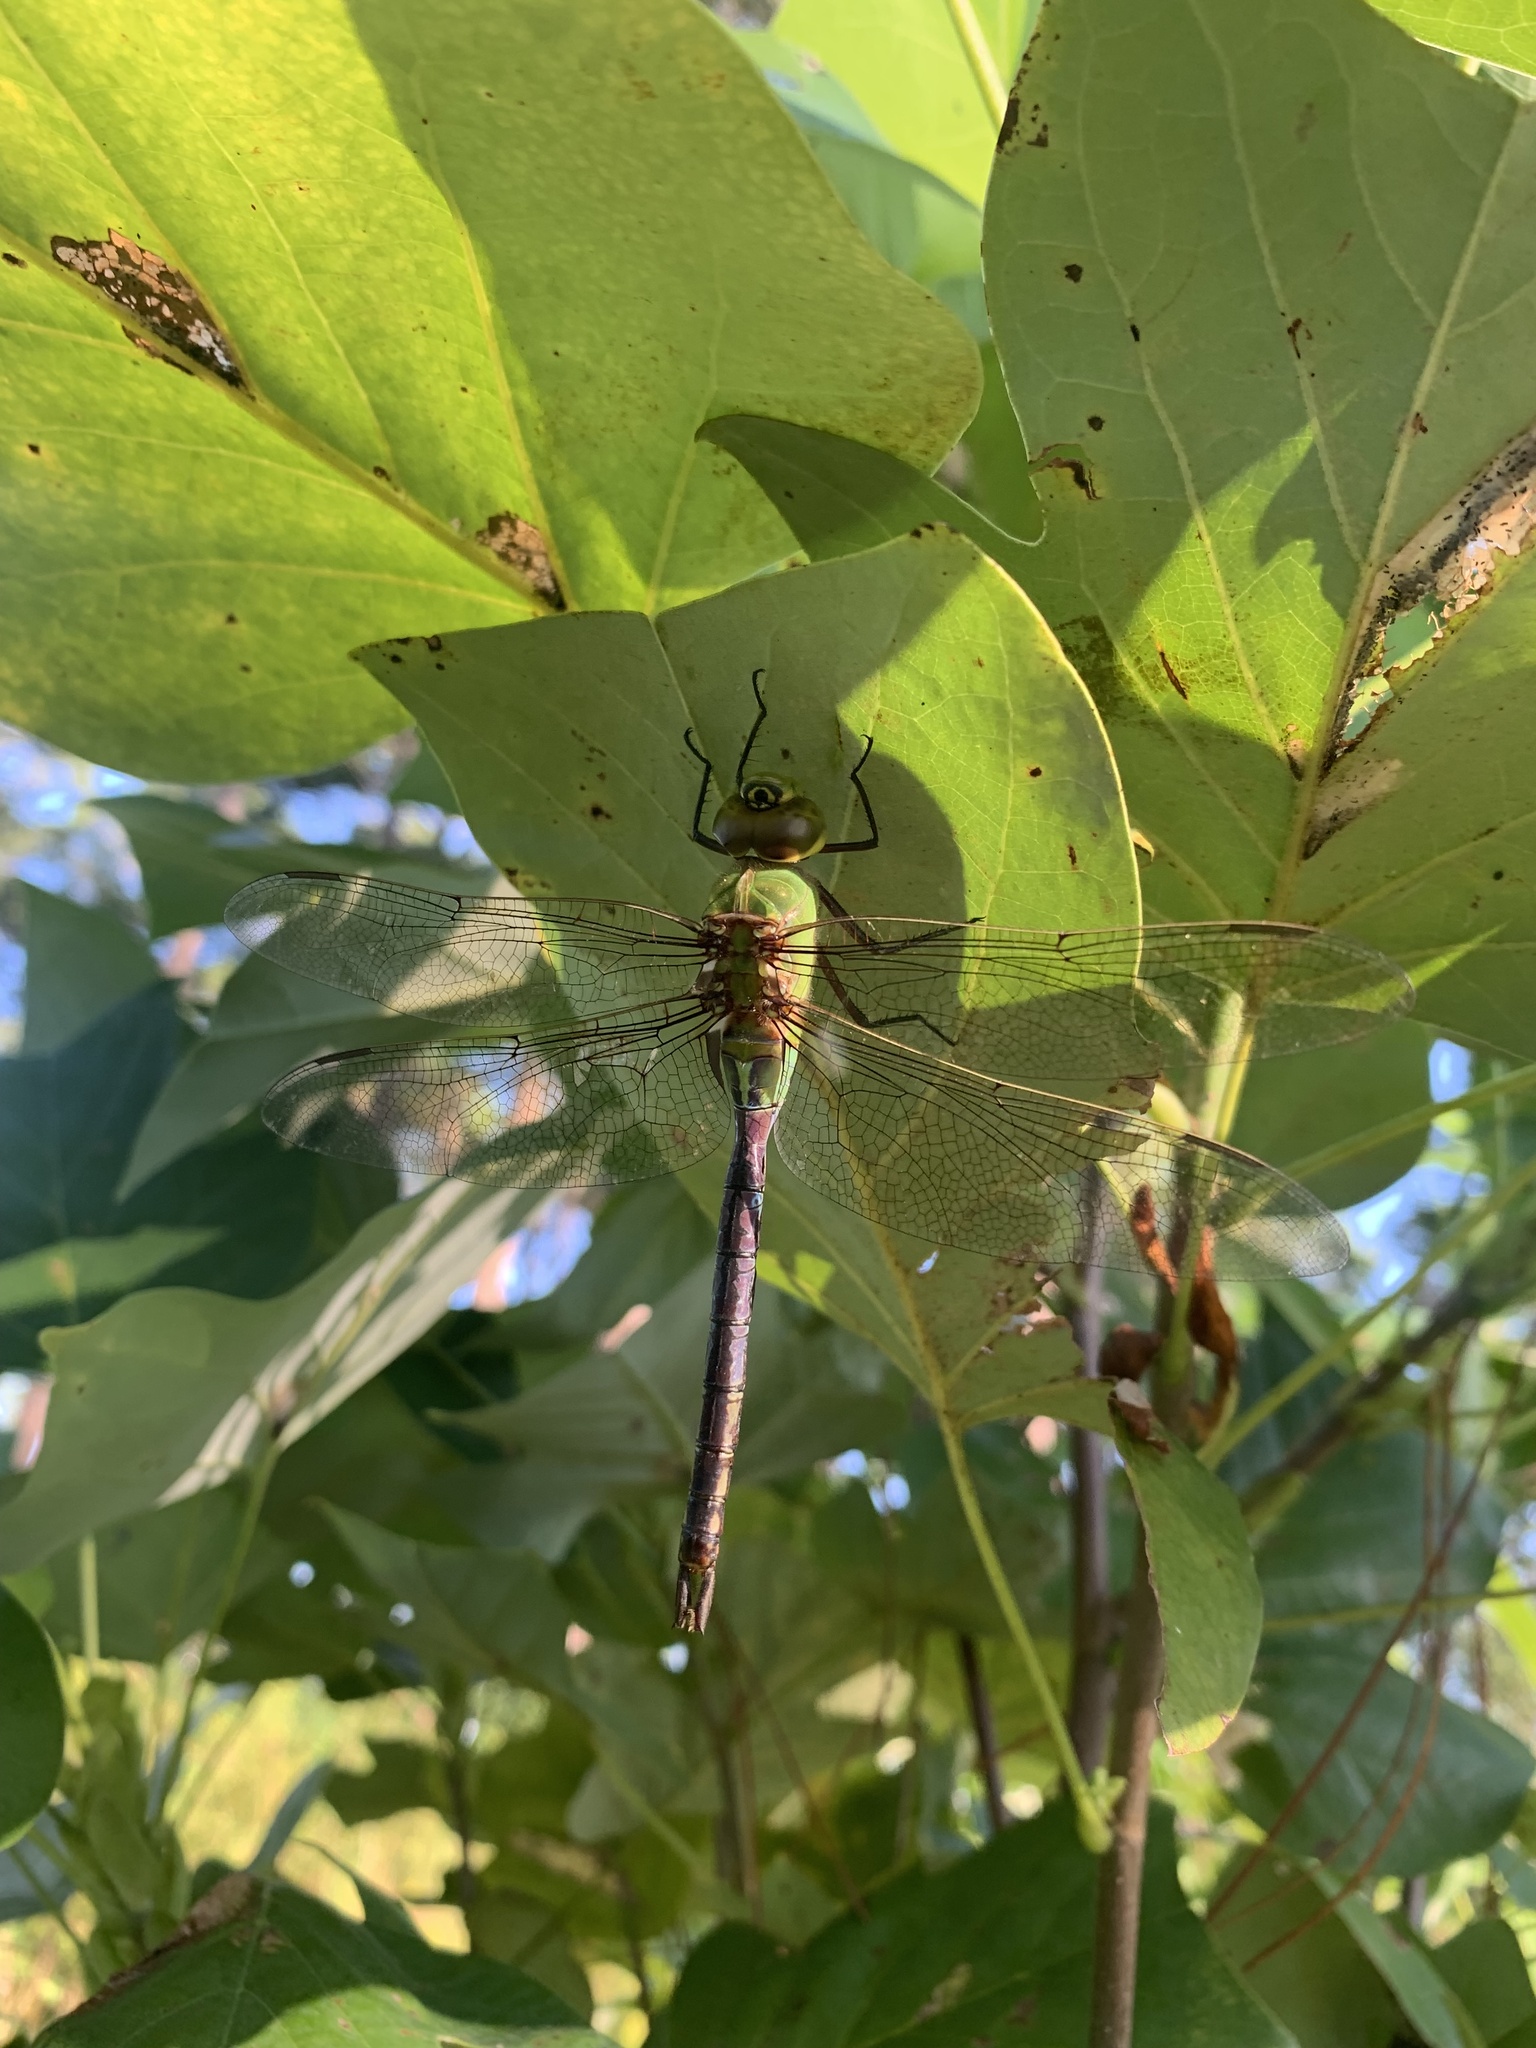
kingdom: Animalia
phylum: Arthropoda
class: Insecta
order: Odonata
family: Aeshnidae
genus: Anax
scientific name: Anax junius
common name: Common green darner
